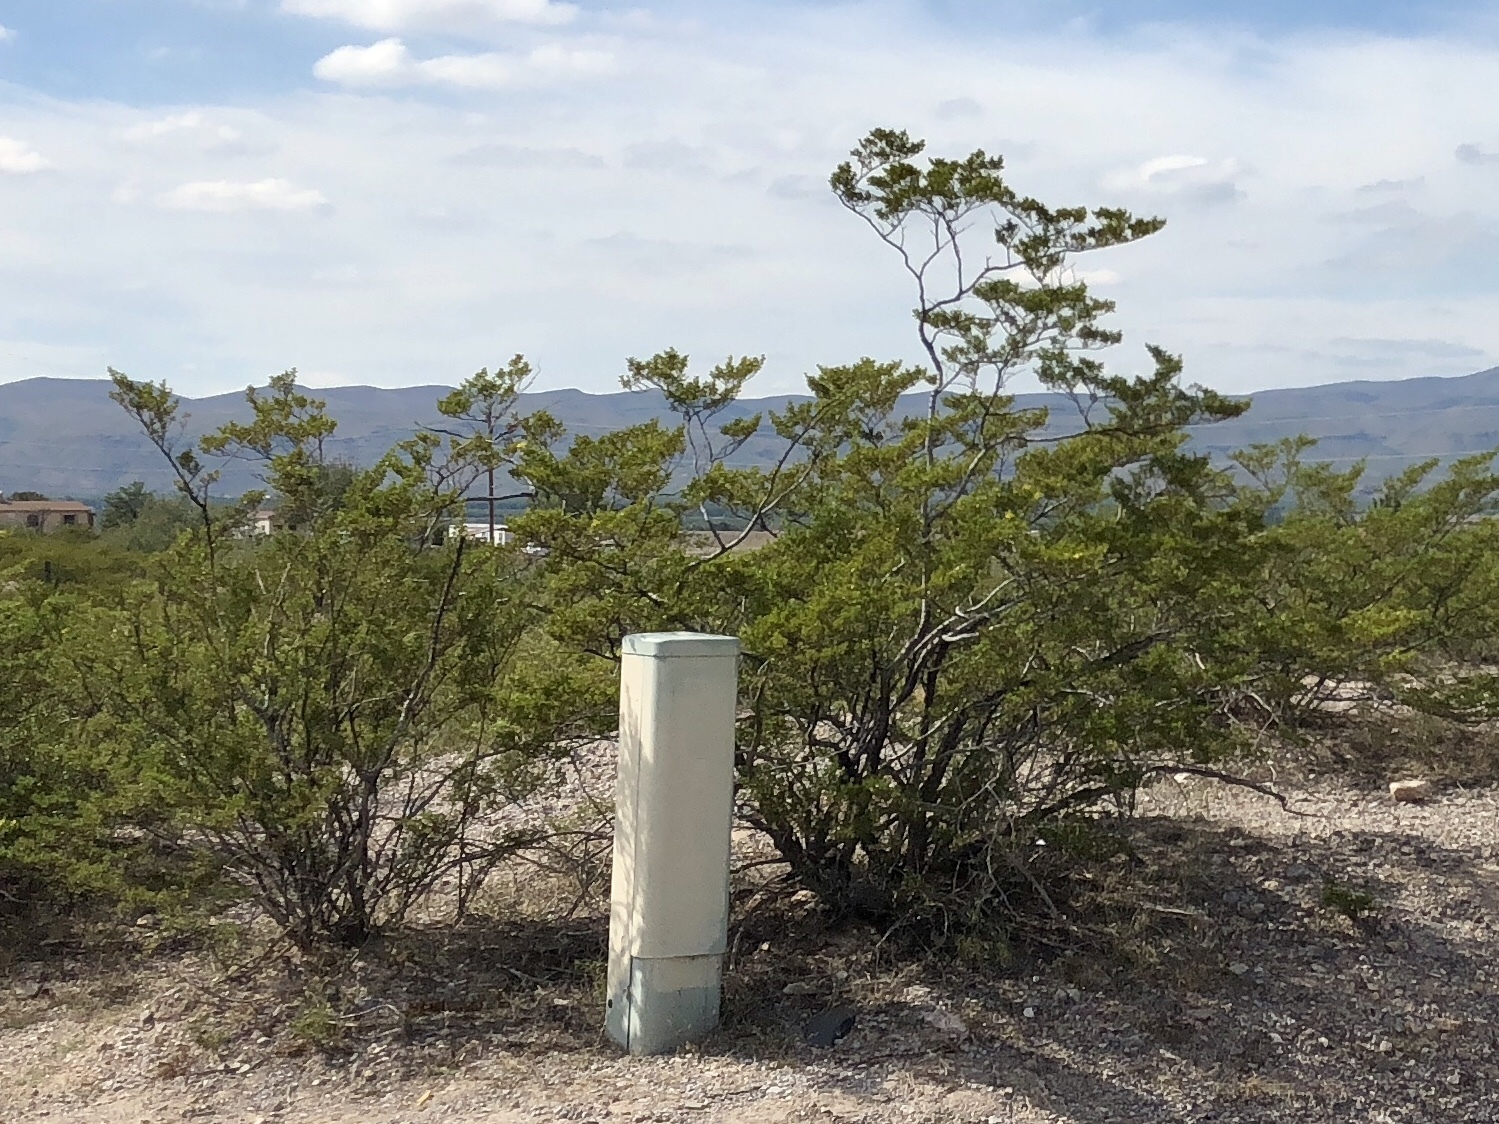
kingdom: Plantae
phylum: Tracheophyta
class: Magnoliopsida
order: Zygophyllales
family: Zygophyllaceae
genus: Larrea
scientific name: Larrea tridentata
